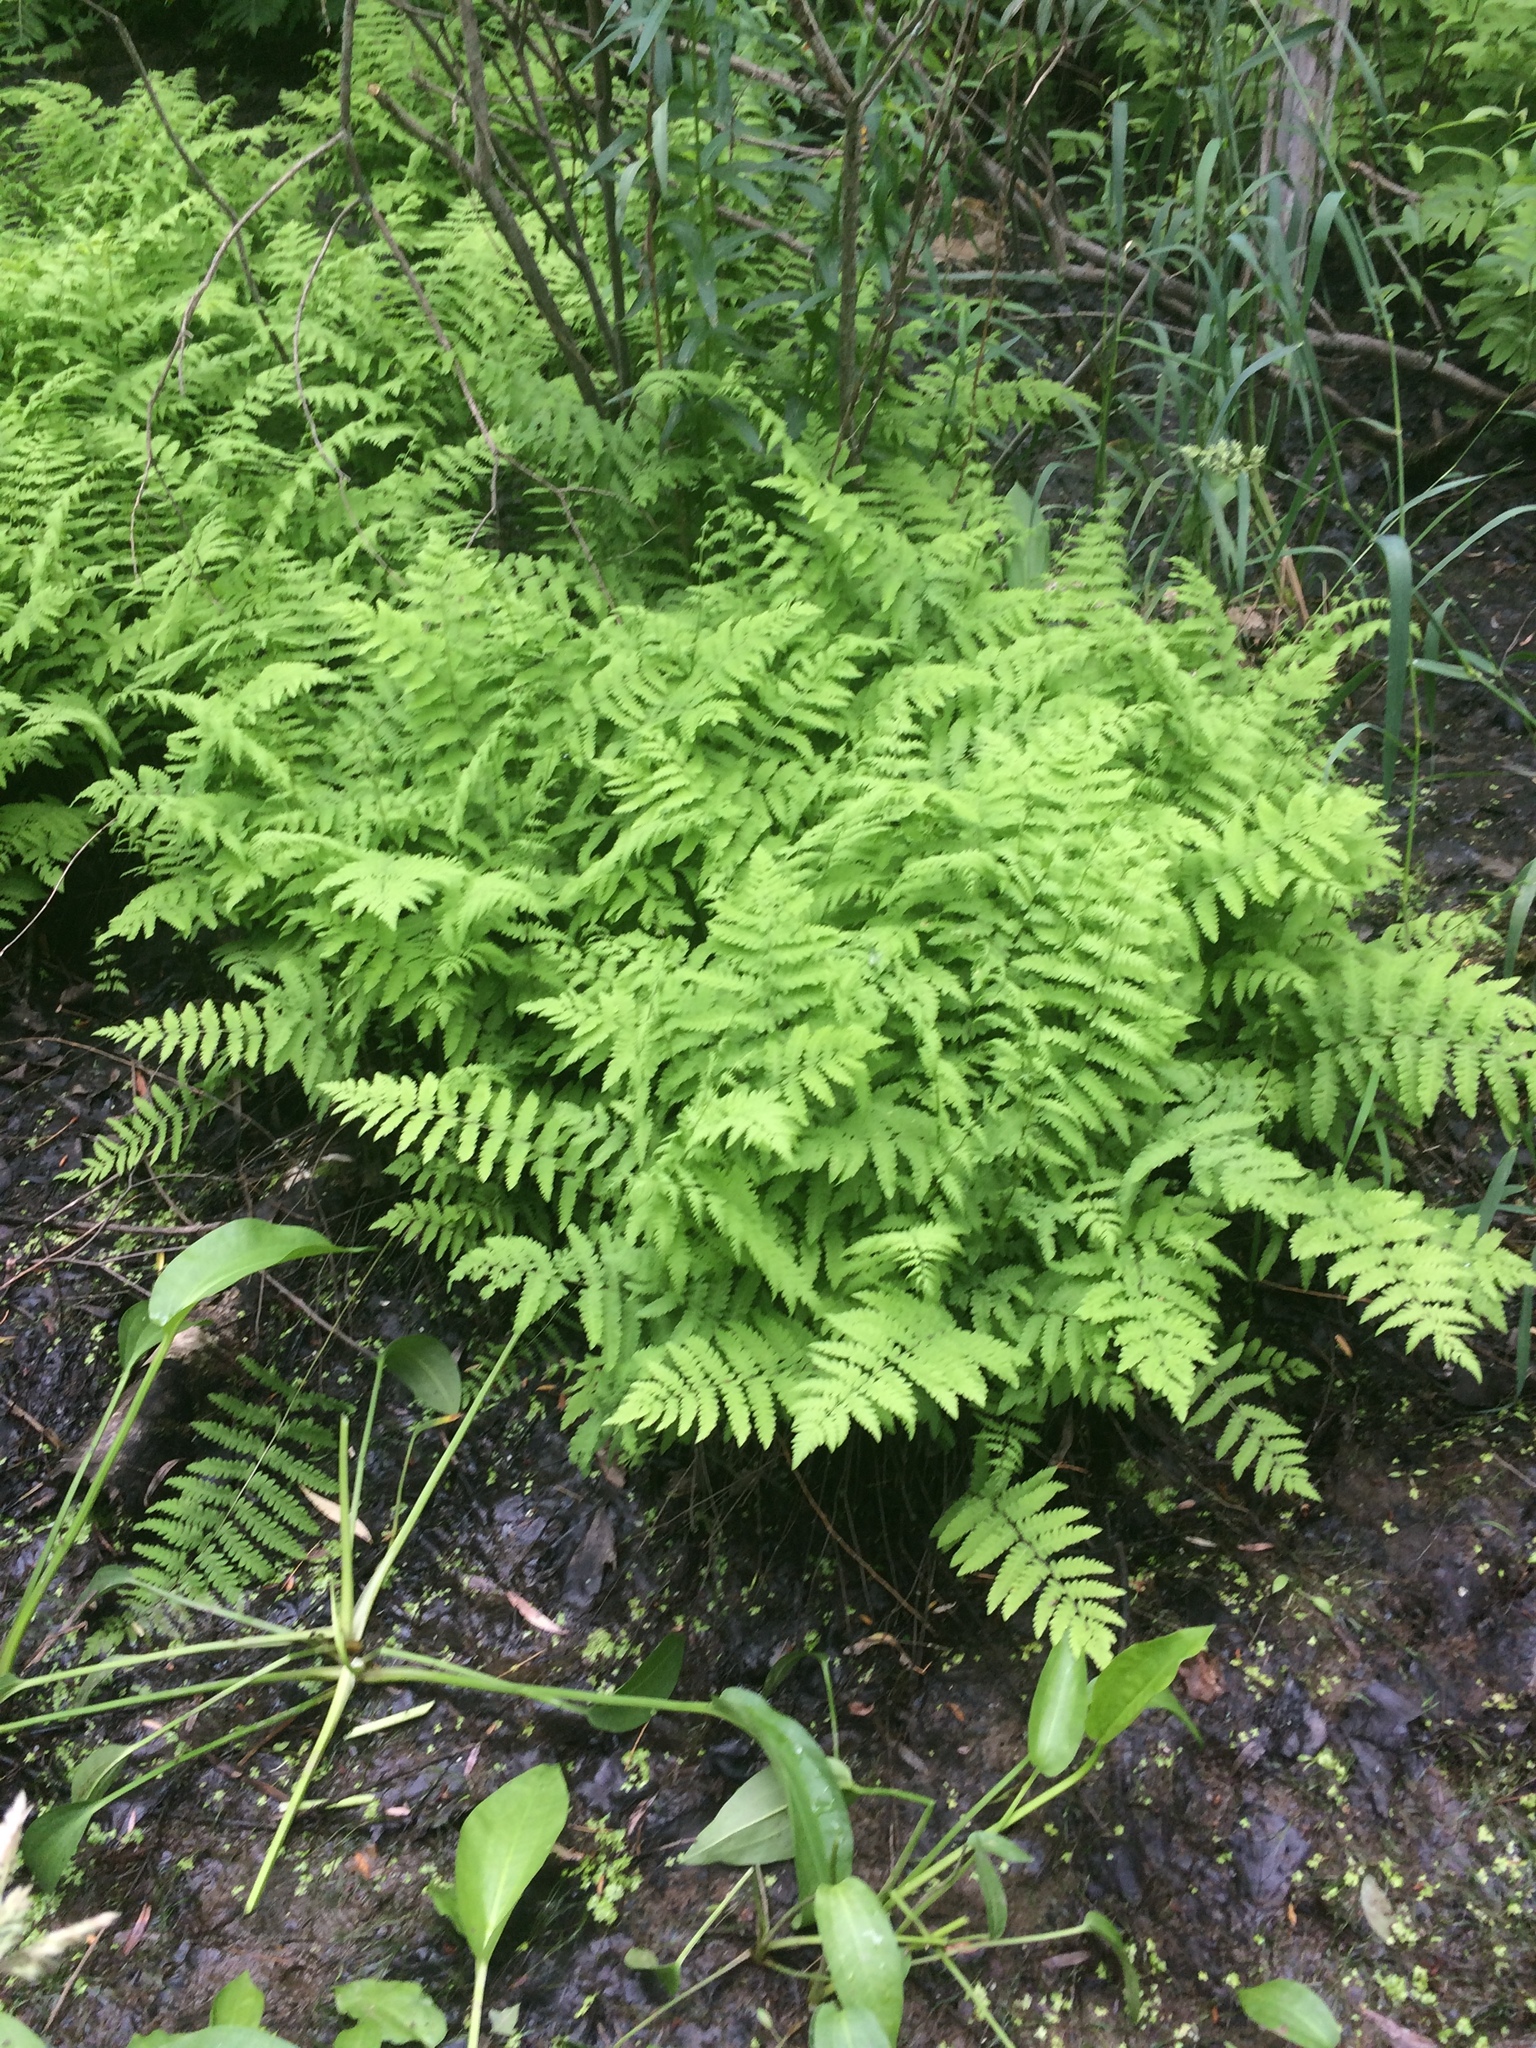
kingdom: Plantae
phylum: Tracheophyta
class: Polypodiopsida
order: Polypodiales
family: Thelypteridaceae
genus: Thelypteris
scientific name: Thelypteris palustris
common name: Marsh fern
